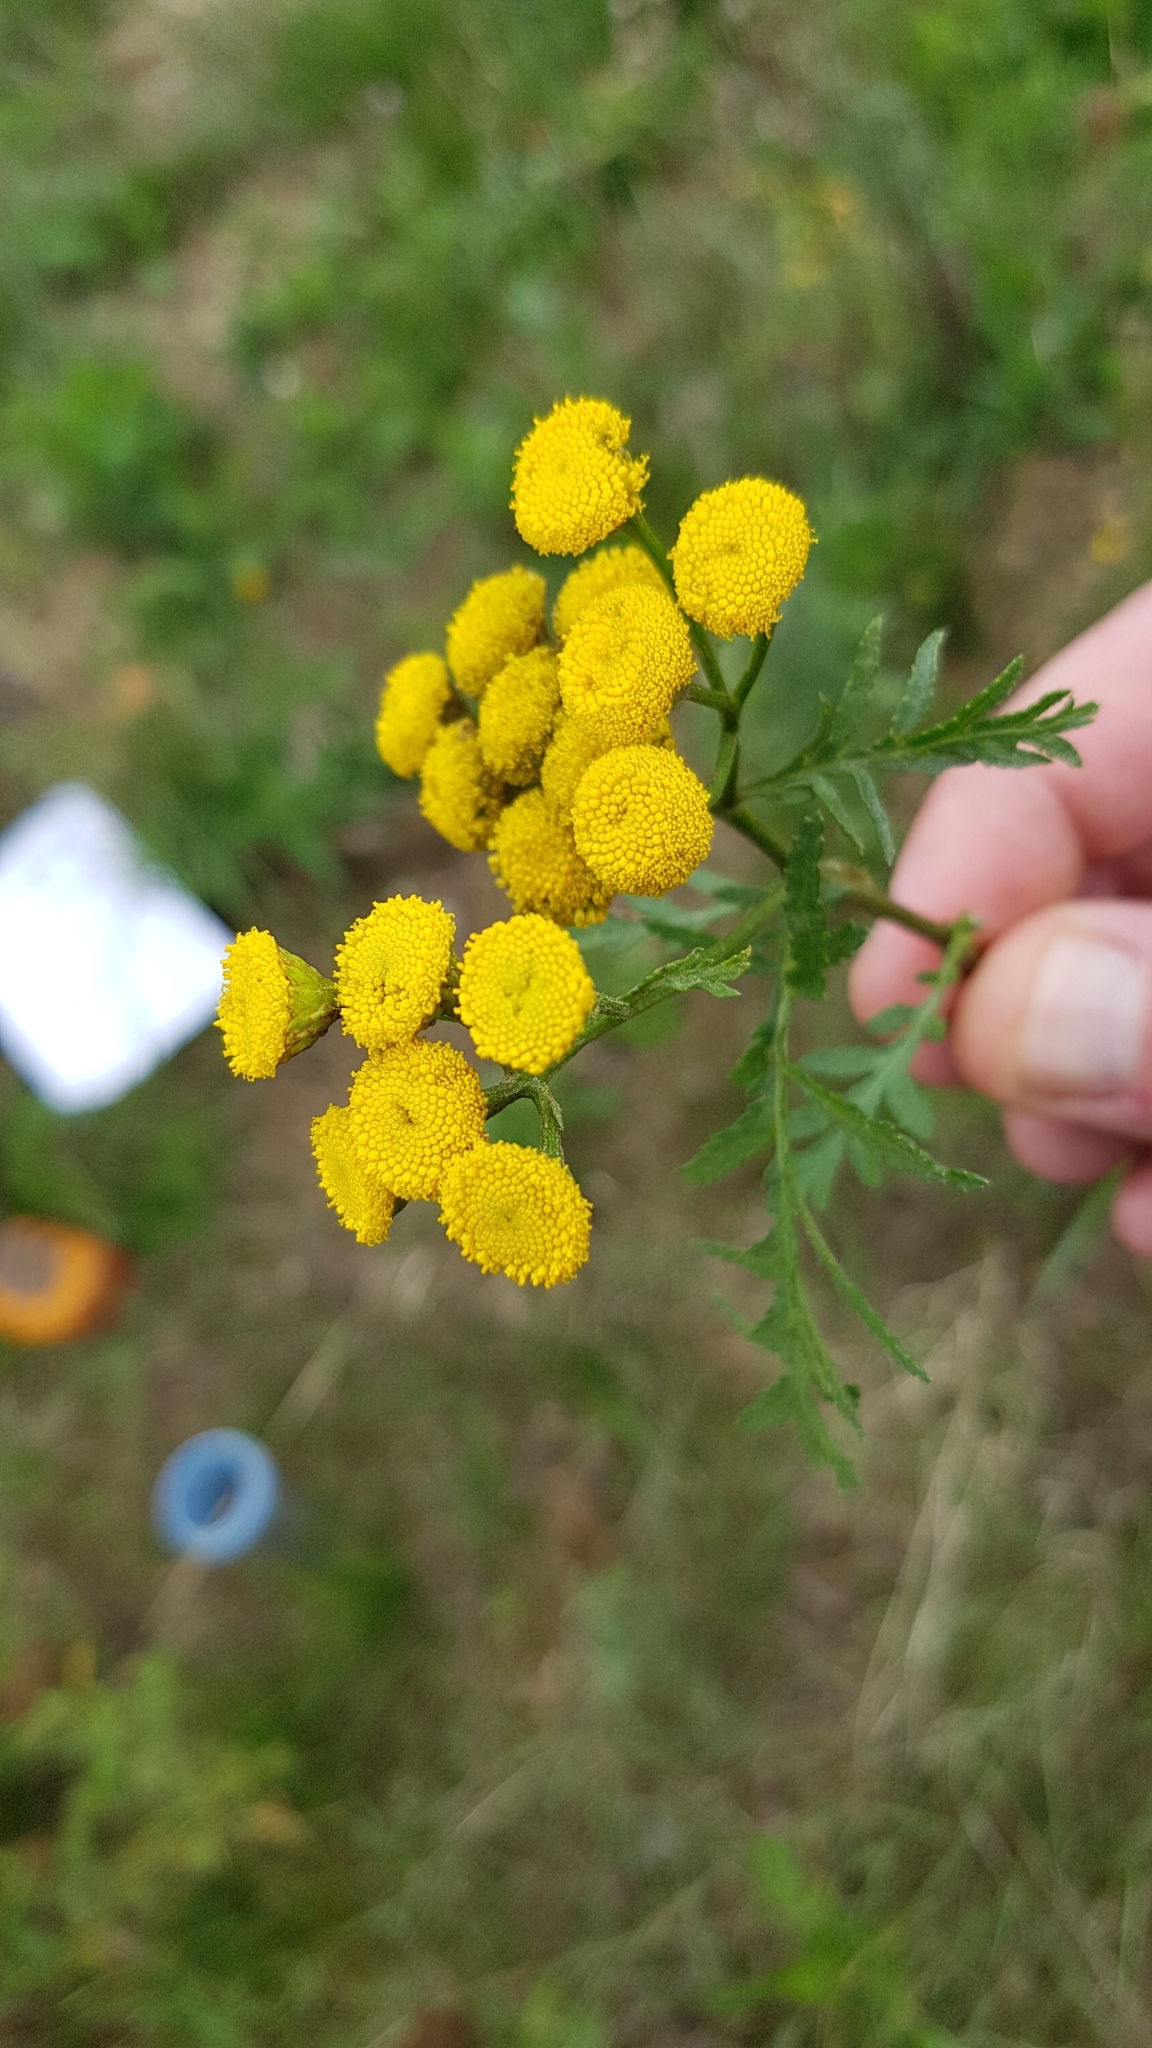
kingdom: Plantae
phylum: Tracheophyta
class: Magnoliopsida
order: Asterales
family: Asteraceae
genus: Tanacetum
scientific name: Tanacetum vulgare
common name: Common tansy
